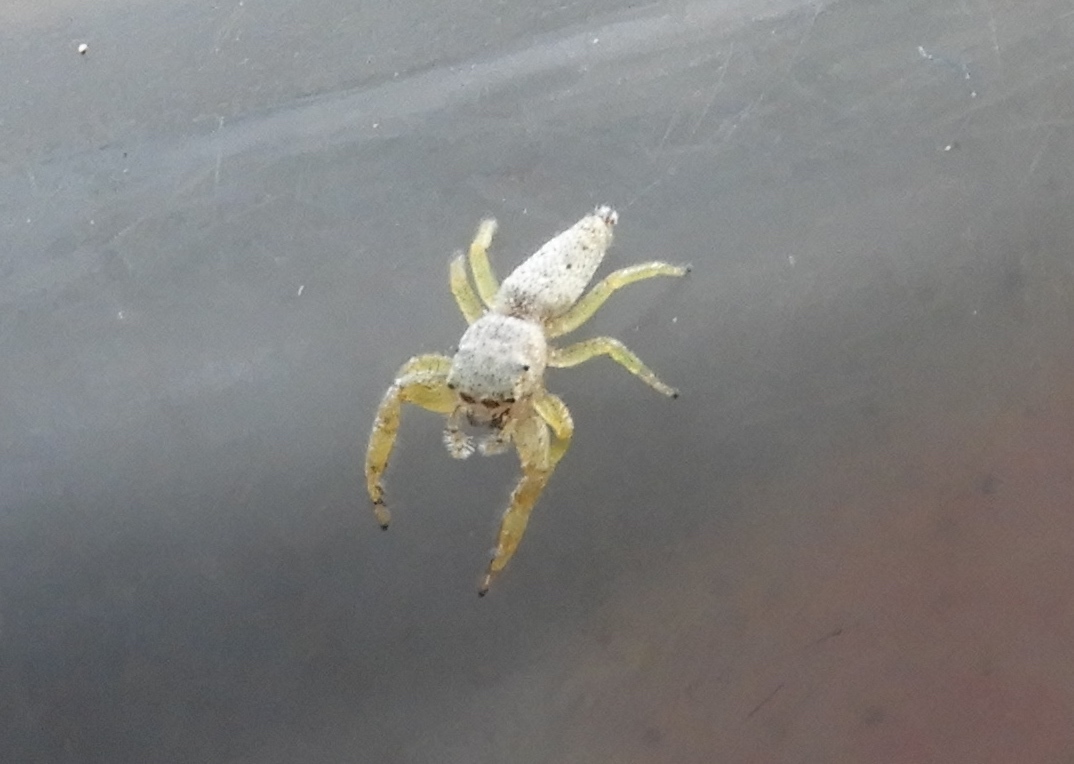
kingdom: Animalia
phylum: Arthropoda
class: Arachnida
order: Araneae
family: Salticidae
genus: Hentzia
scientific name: Hentzia
